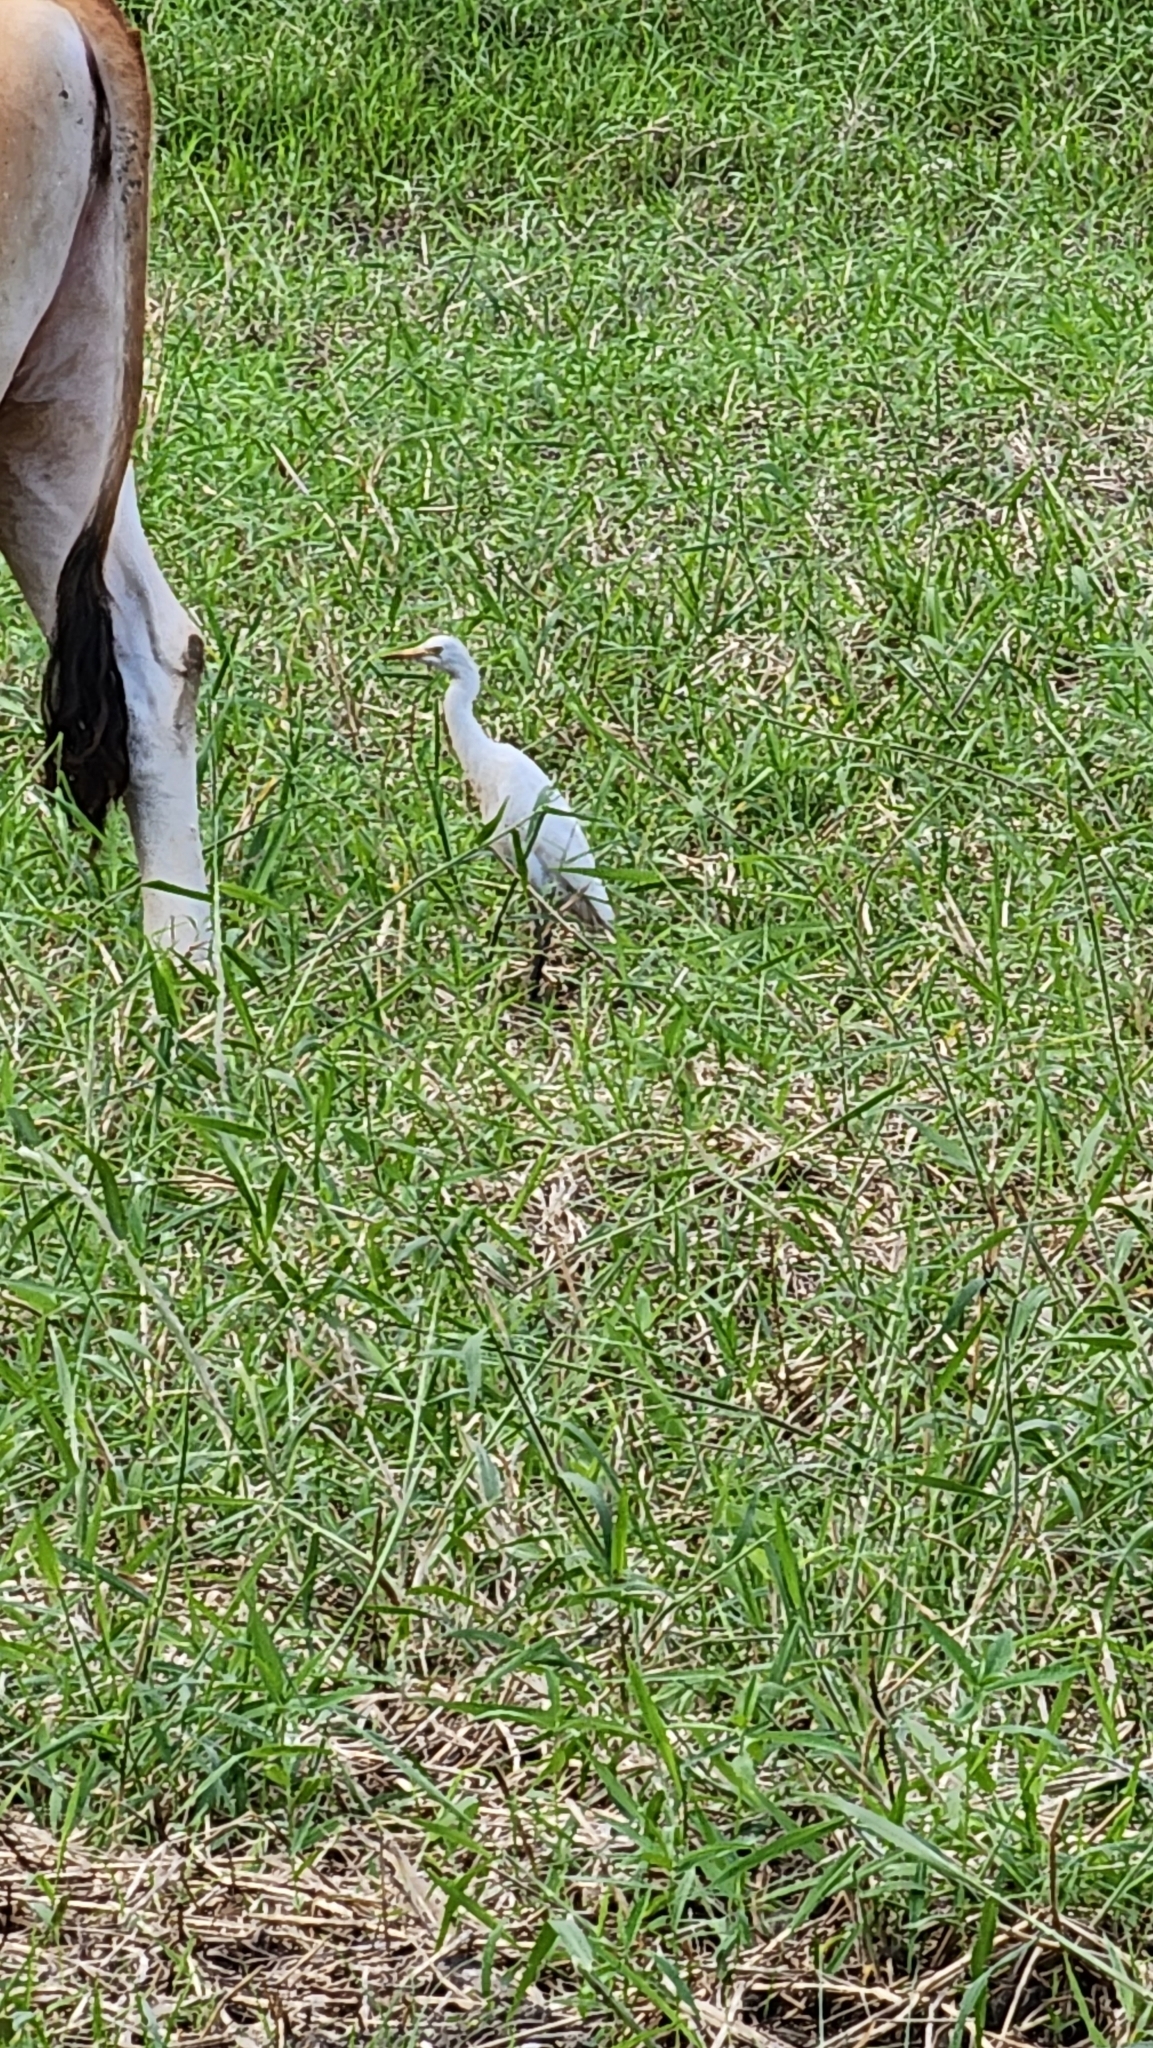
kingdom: Animalia
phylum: Chordata
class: Aves
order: Pelecaniformes
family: Ardeidae
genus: Bubulcus
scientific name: Bubulcus coromandus
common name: Eastern cattle egret
